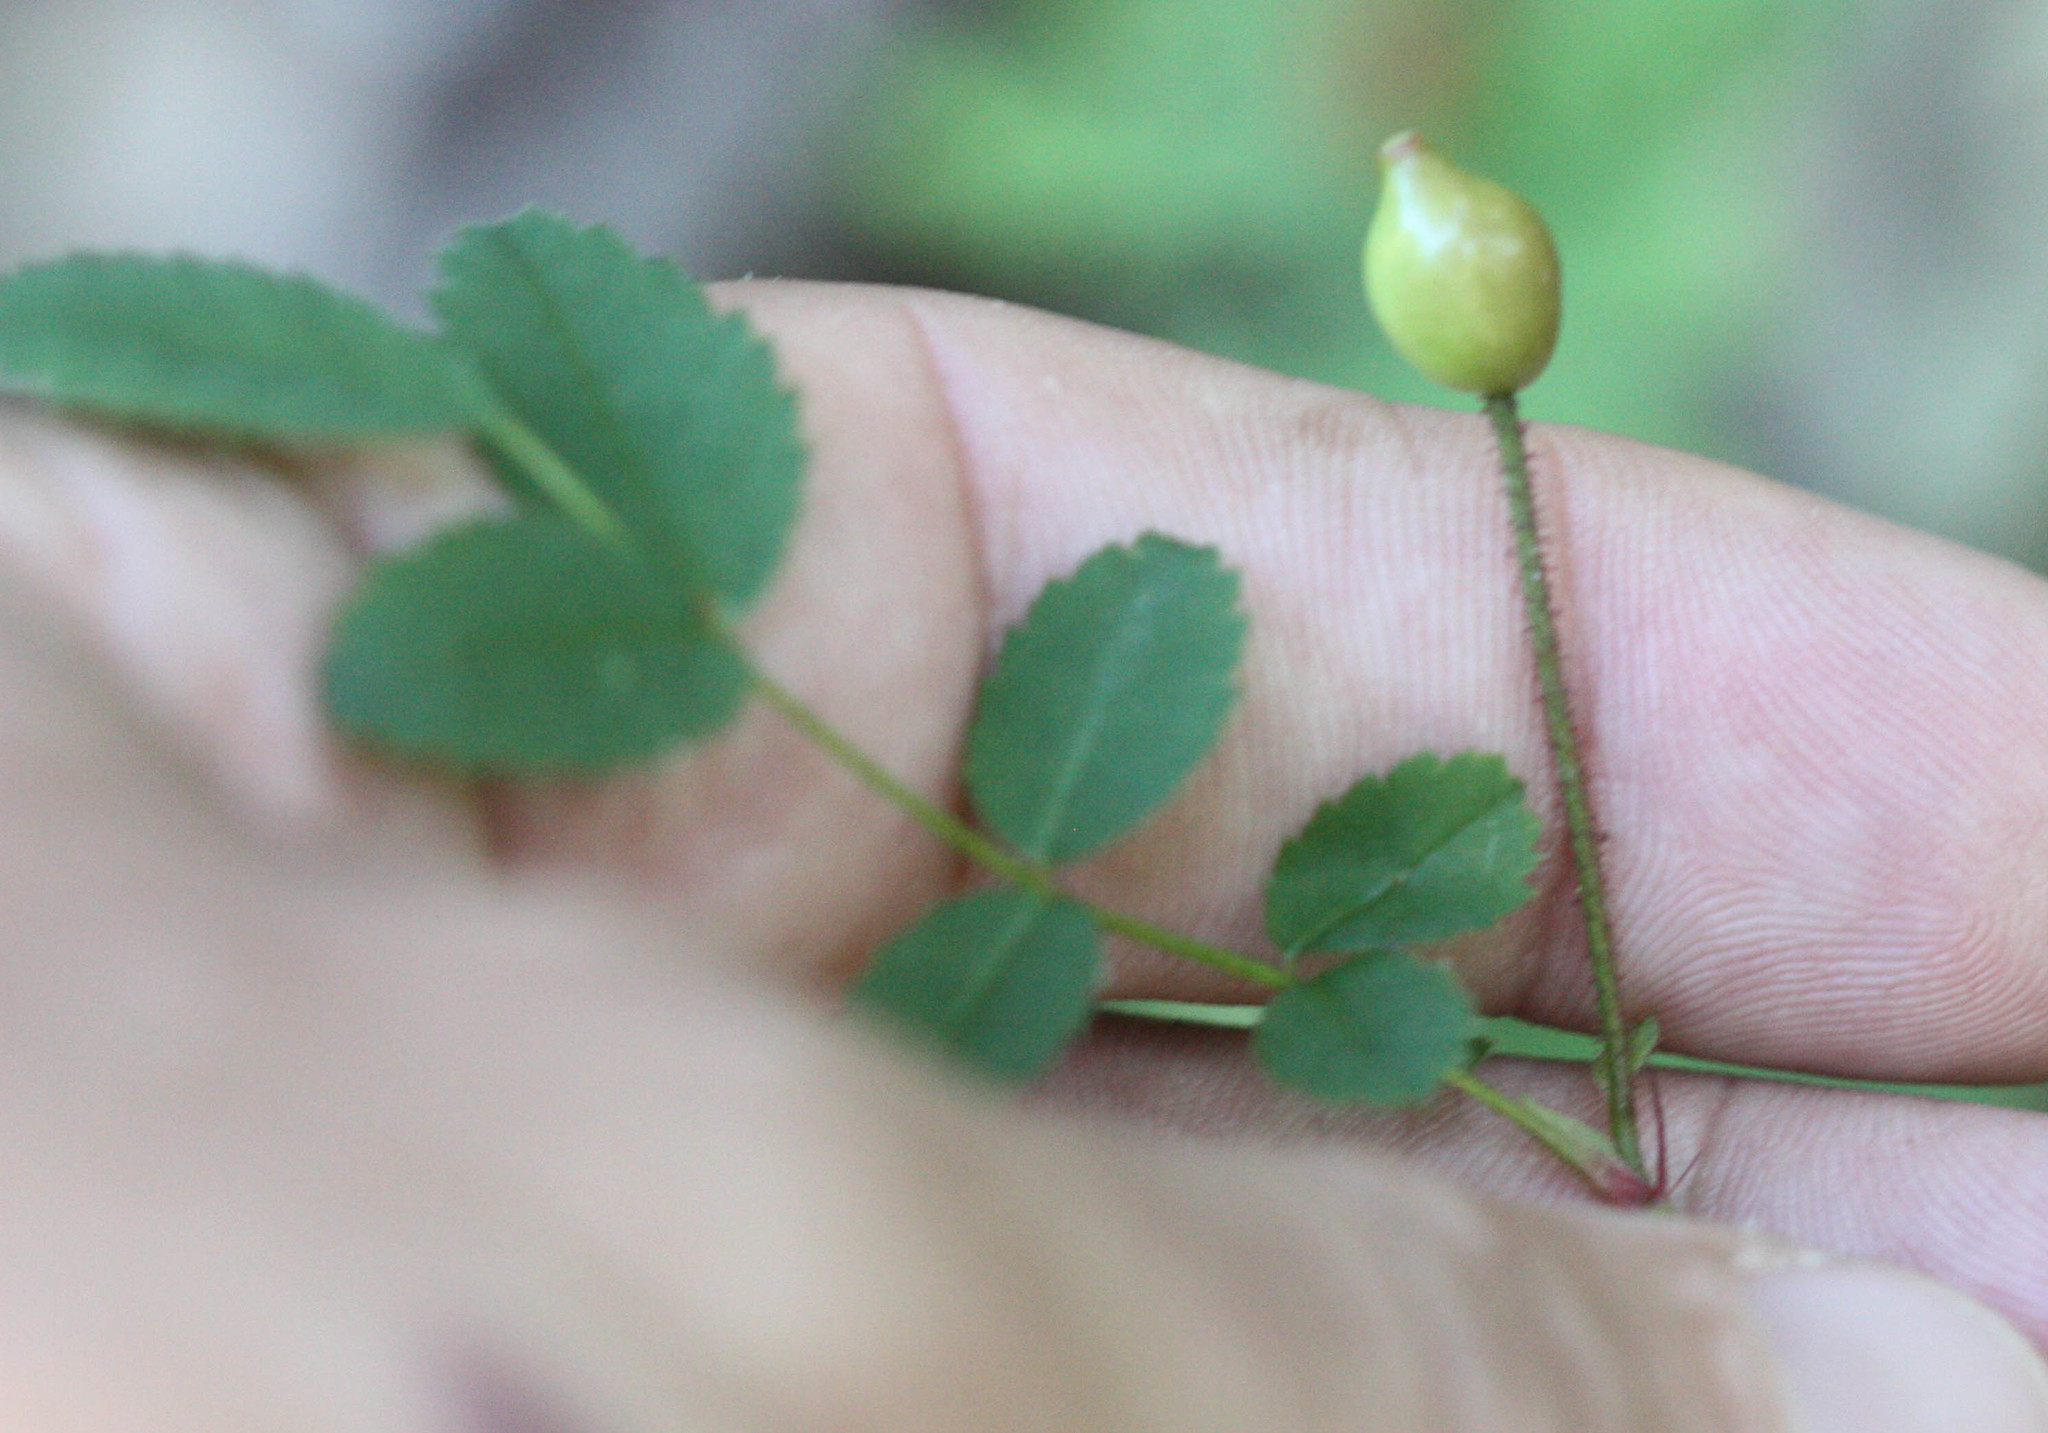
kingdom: Plantae
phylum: Tracheophyta
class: Magnoliopsida
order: Rosales
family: Rosaceae
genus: Rosa
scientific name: Rosa gymnocarpa
